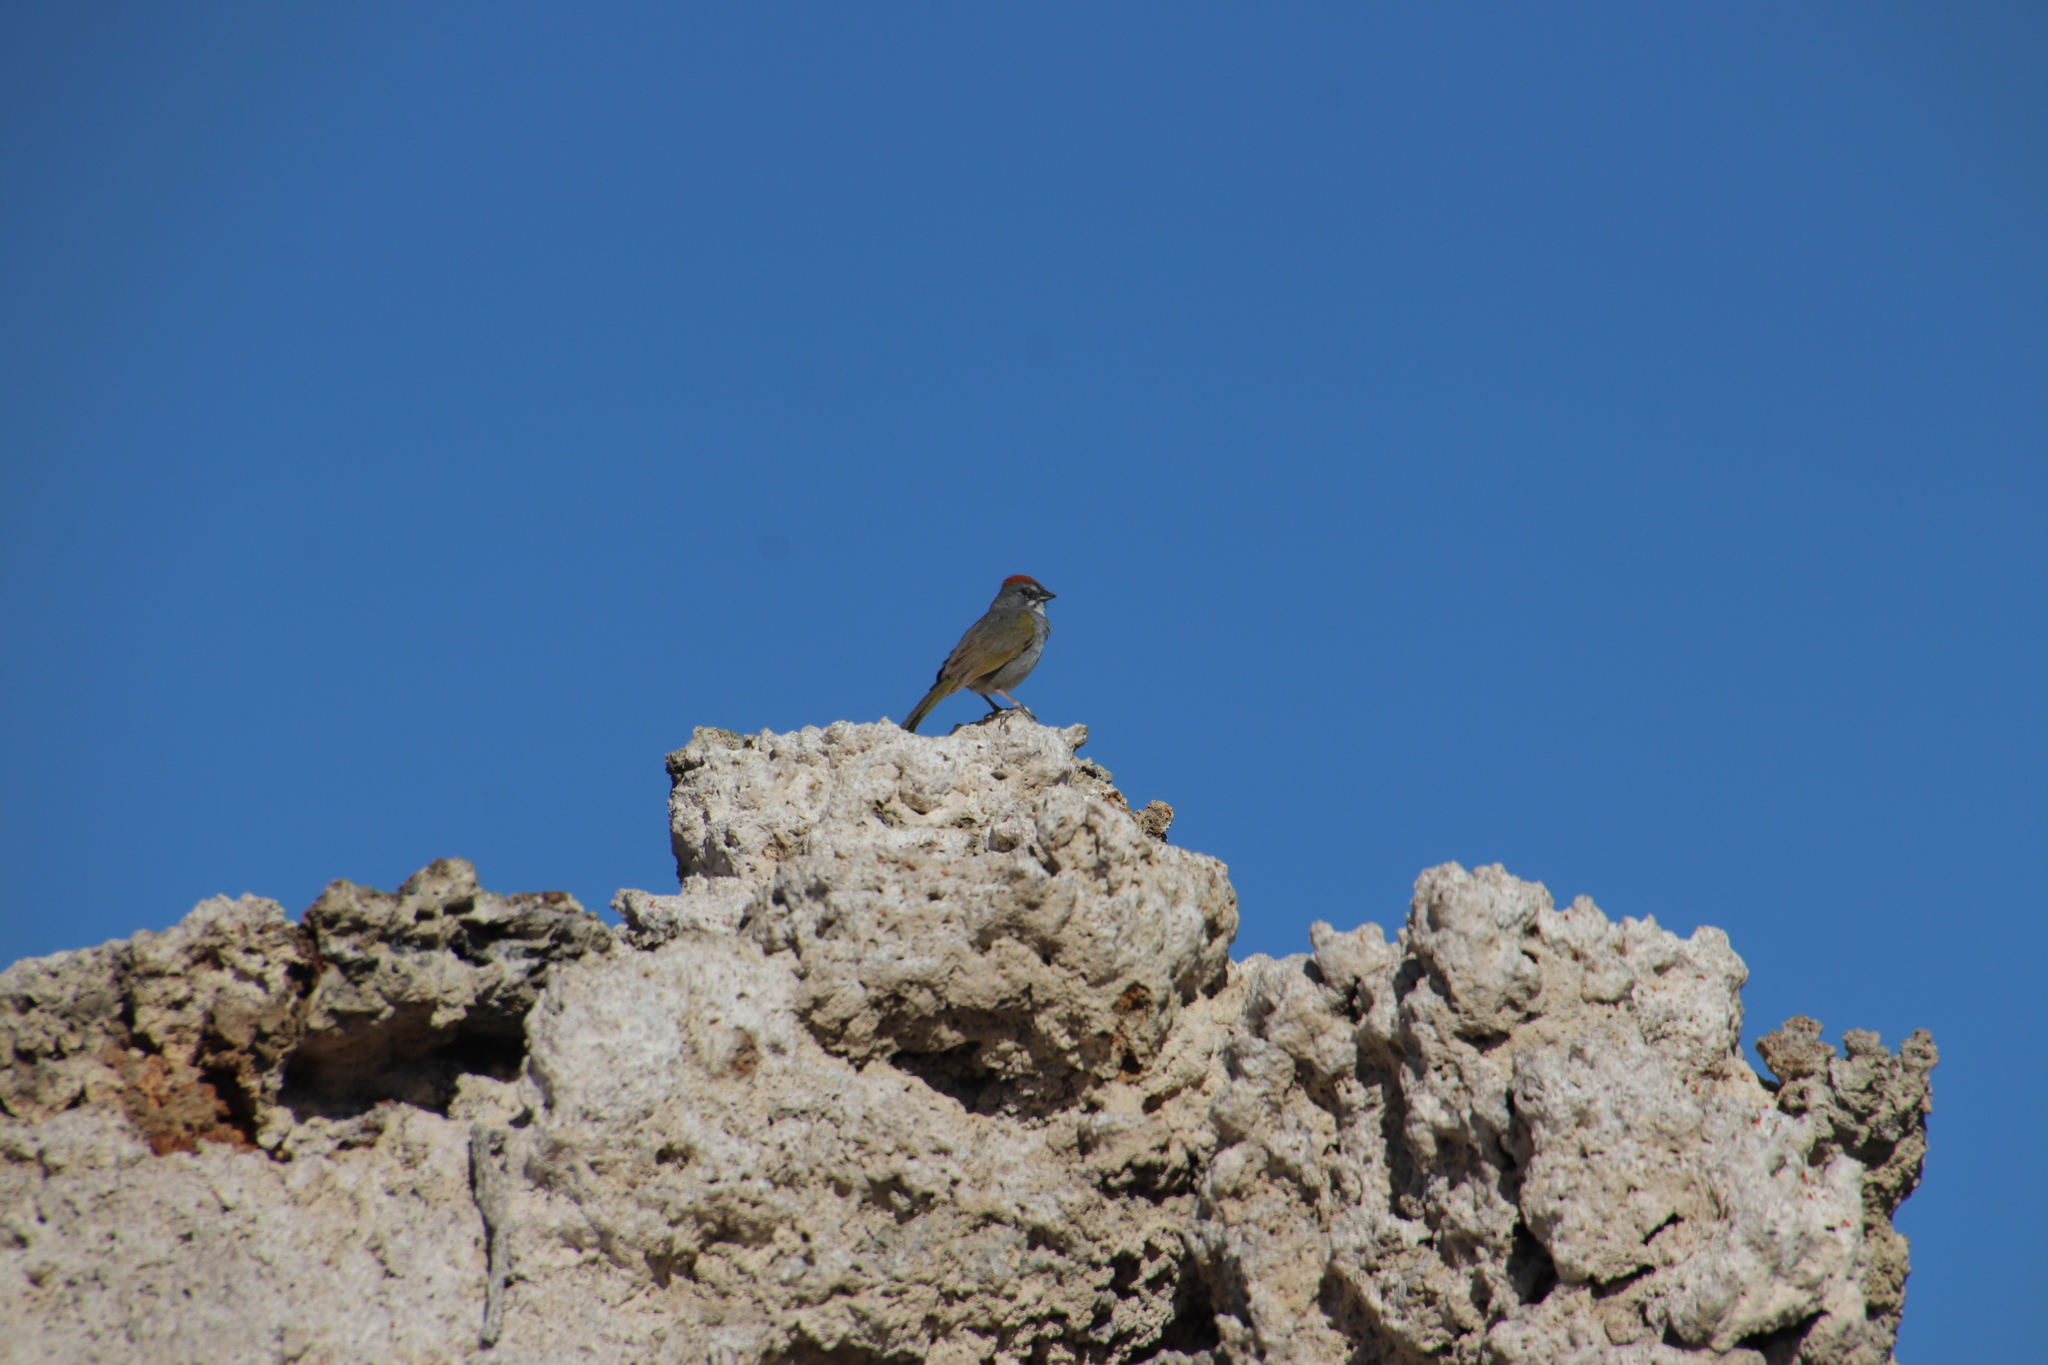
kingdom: Animalia
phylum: Chordata
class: Aves
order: Passeriformes
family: Passerellidae
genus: Pipilo
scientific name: Pipilo chlorurus
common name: Green-tailed towhee
